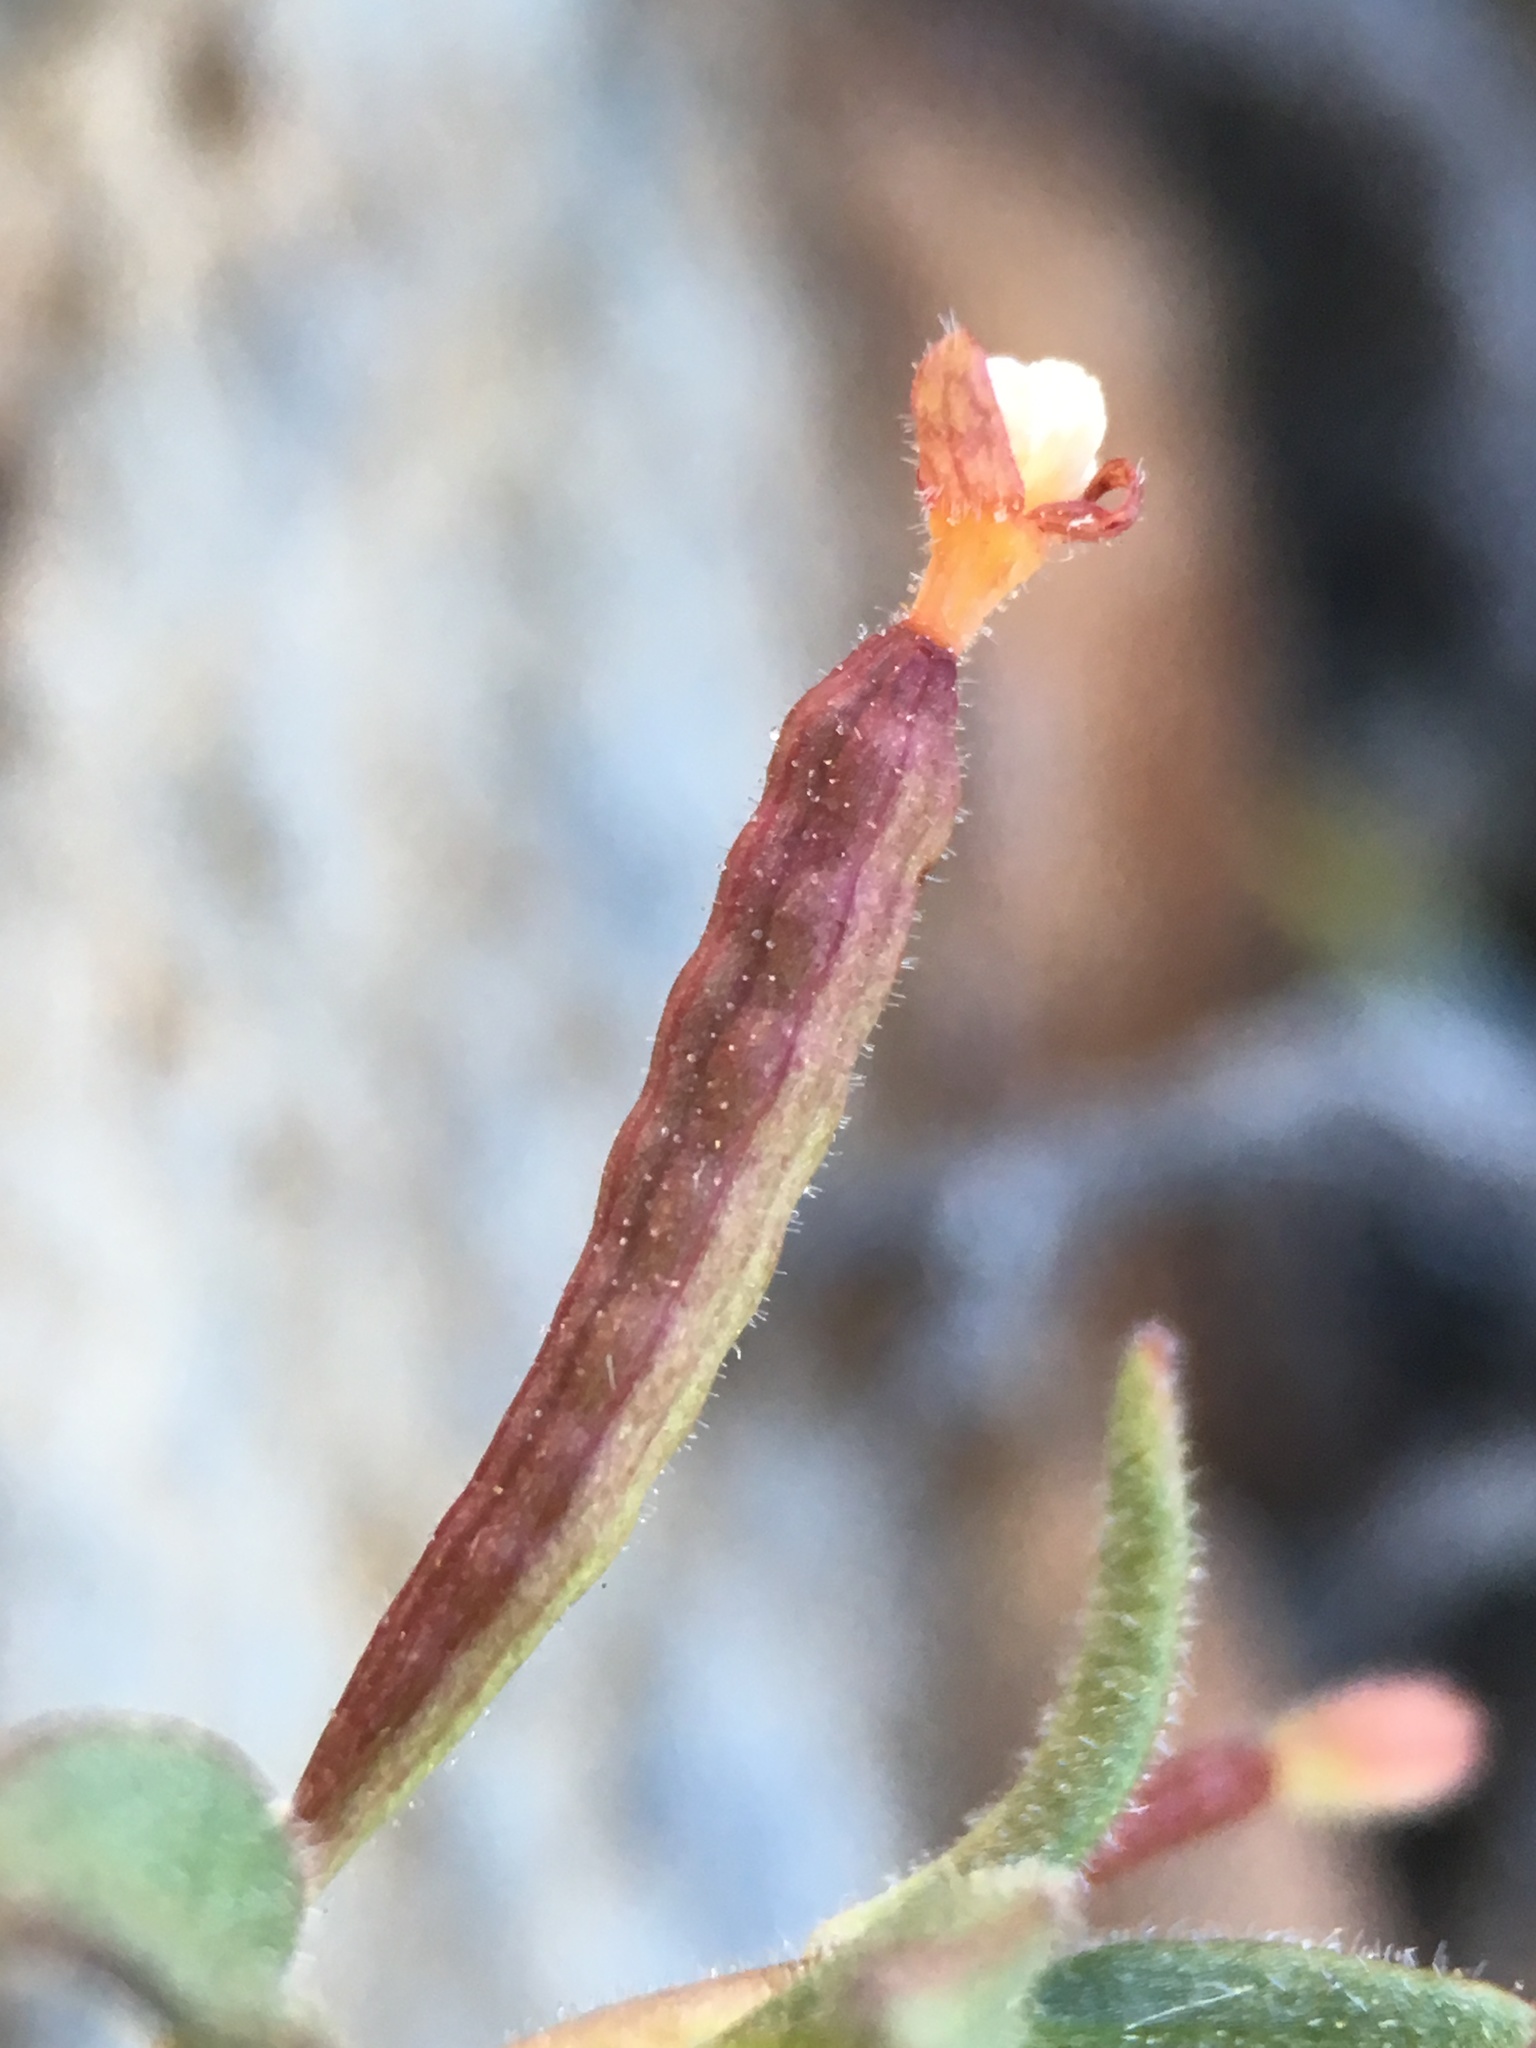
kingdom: Plantae
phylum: Tracheophyta
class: Magnoliopsida
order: Myrtales
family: Onagraceae
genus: Eremothera
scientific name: Eremothera chamaenerioides
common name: Longcapsule suncup
